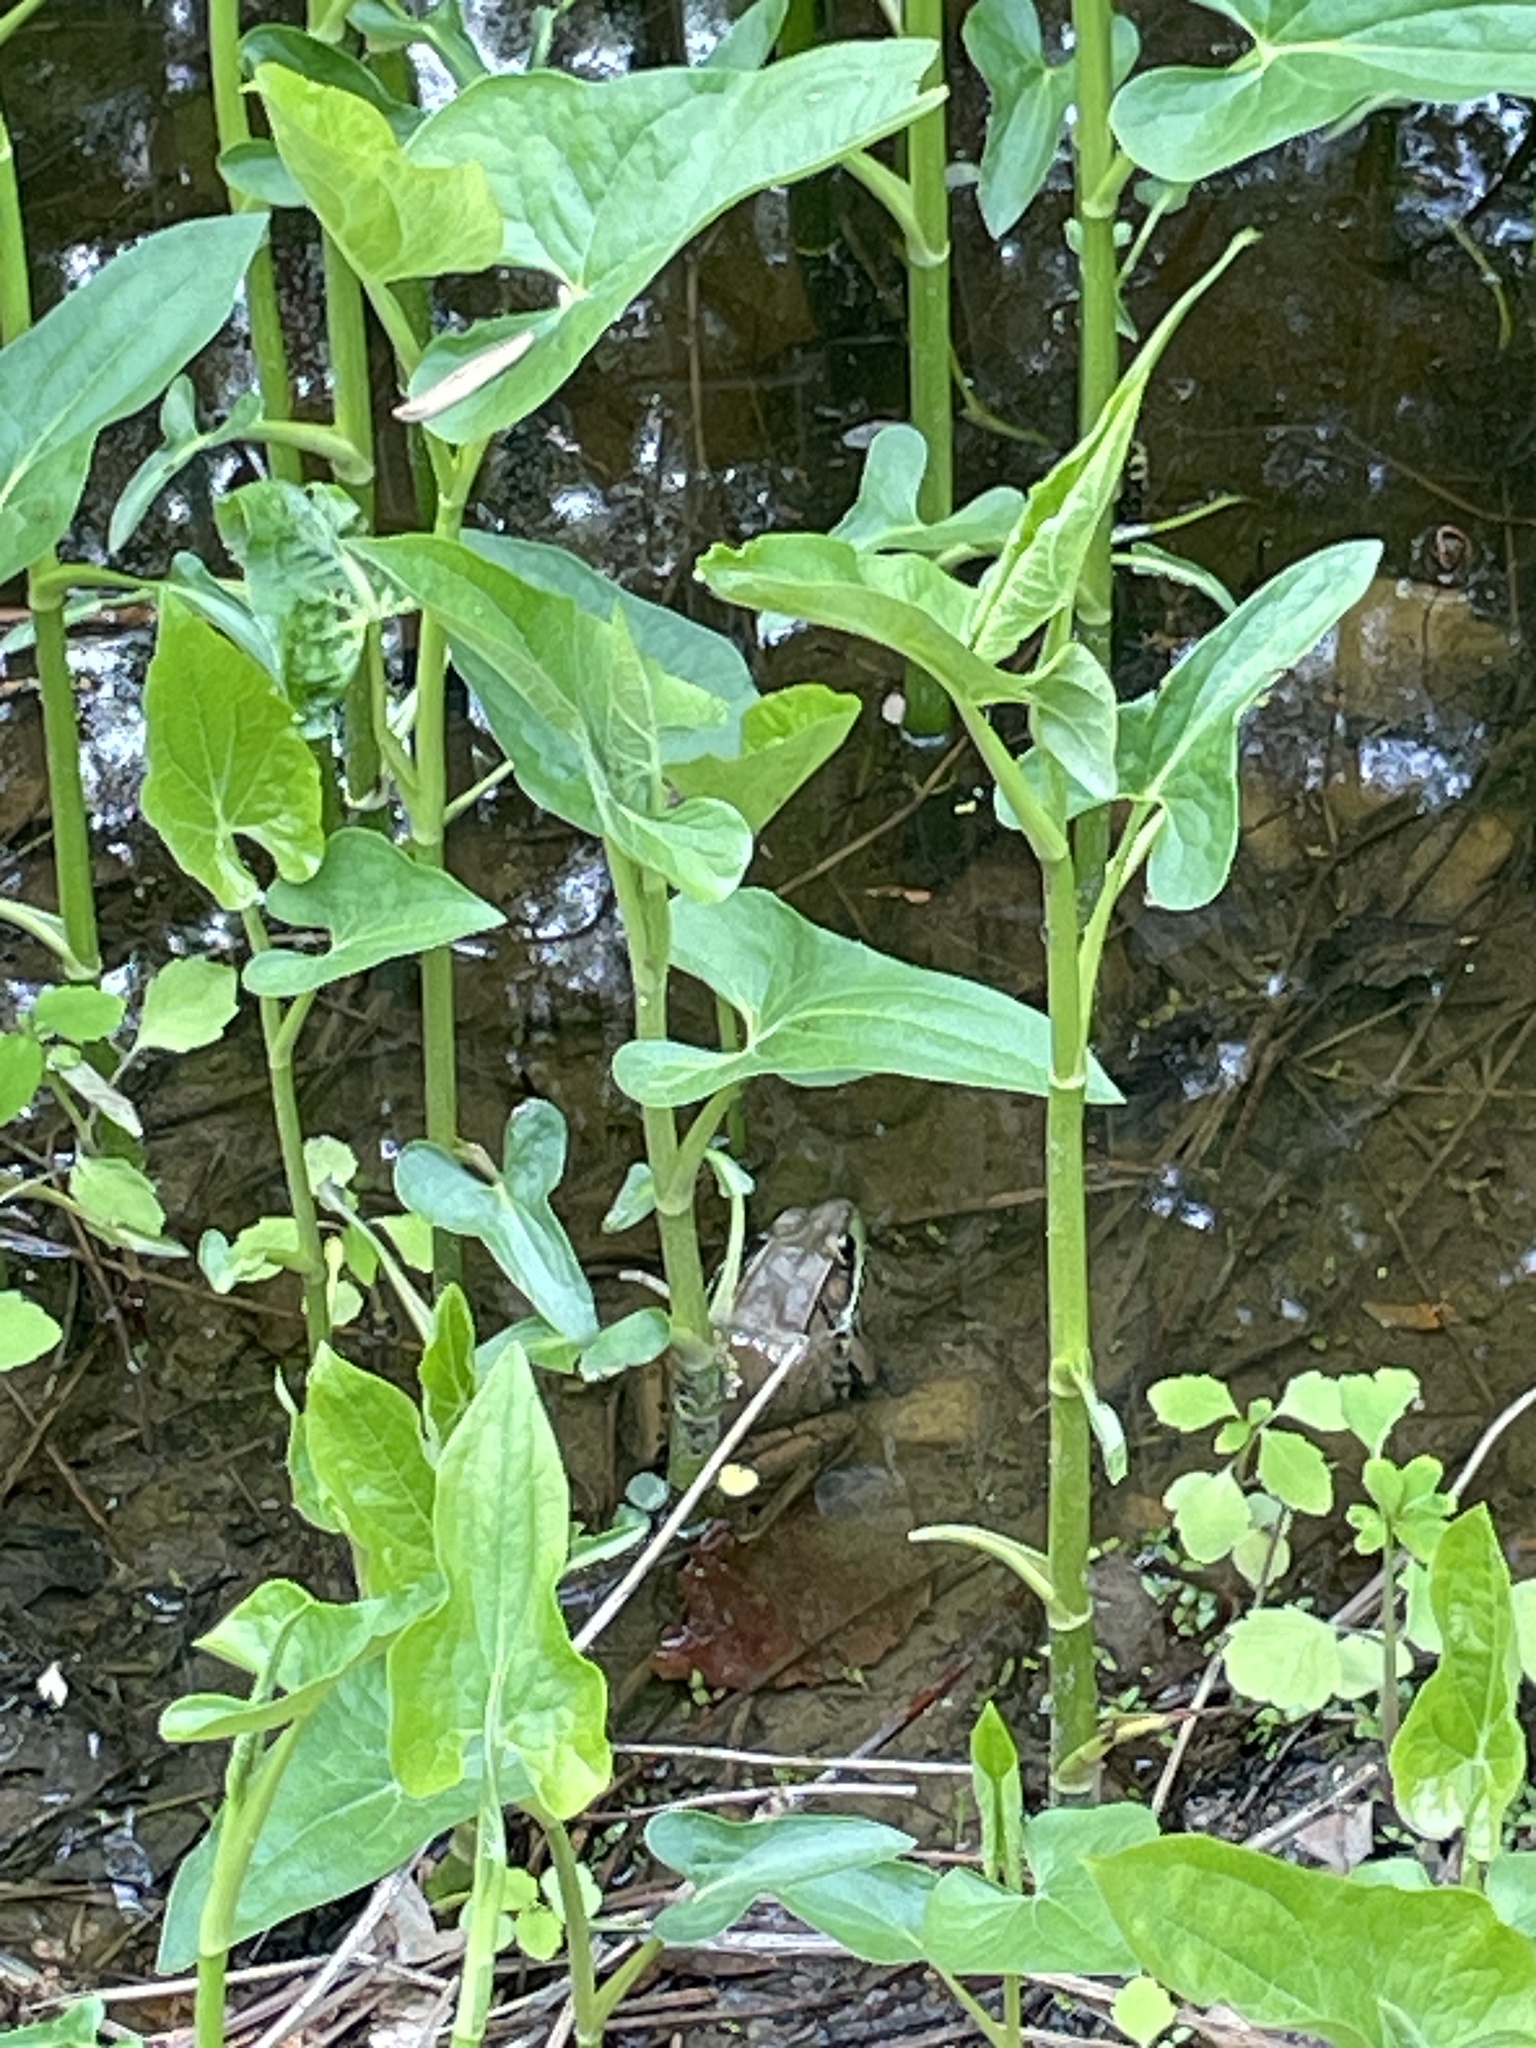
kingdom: Animalia
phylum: Chordata
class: Amphibia
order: Anura
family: Ranidae
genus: Lithobates
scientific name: Lithobates clamitans
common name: Green frog
